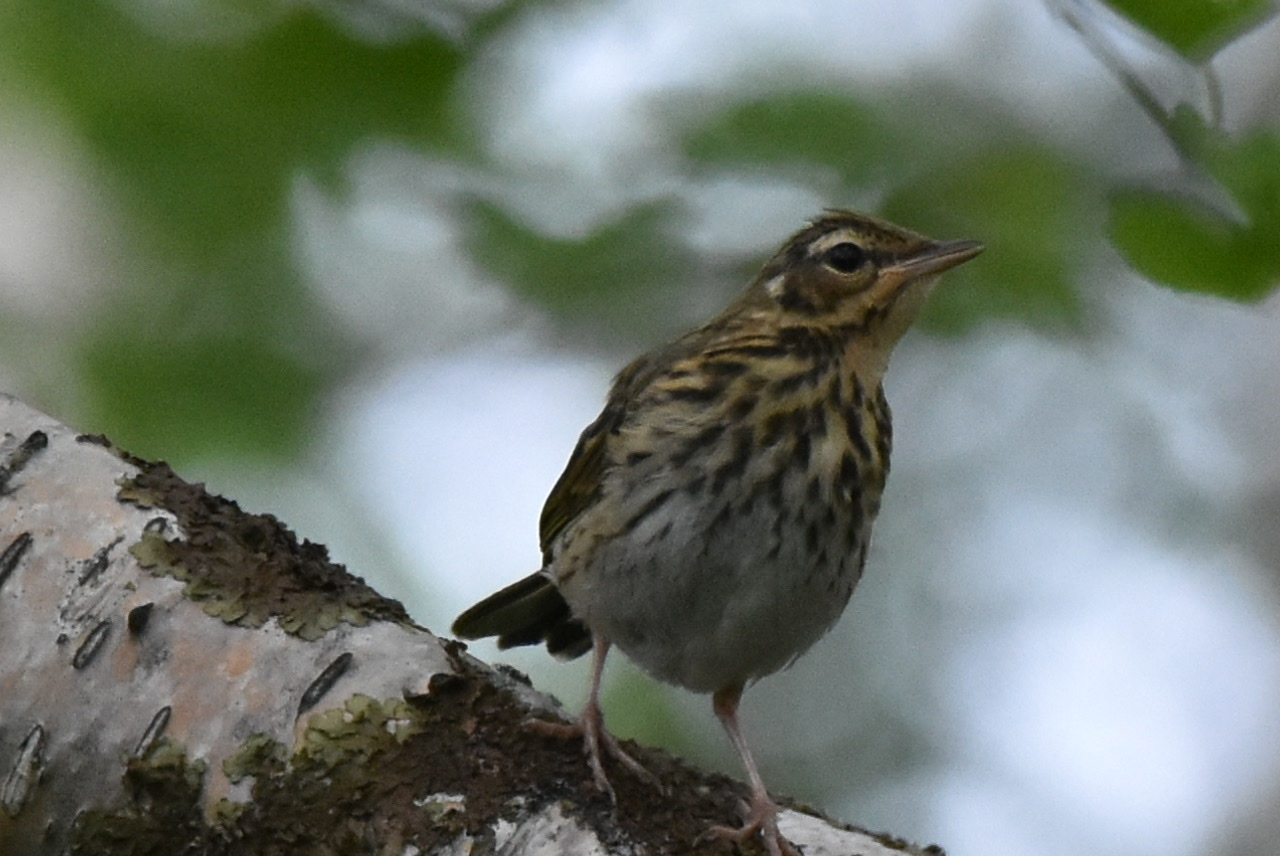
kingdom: Animalia
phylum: Chordata
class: Aves
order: Passeriformes
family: Motacillidae
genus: Anthus
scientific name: Anthus hodgsoni
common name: Olive-backed pipit
